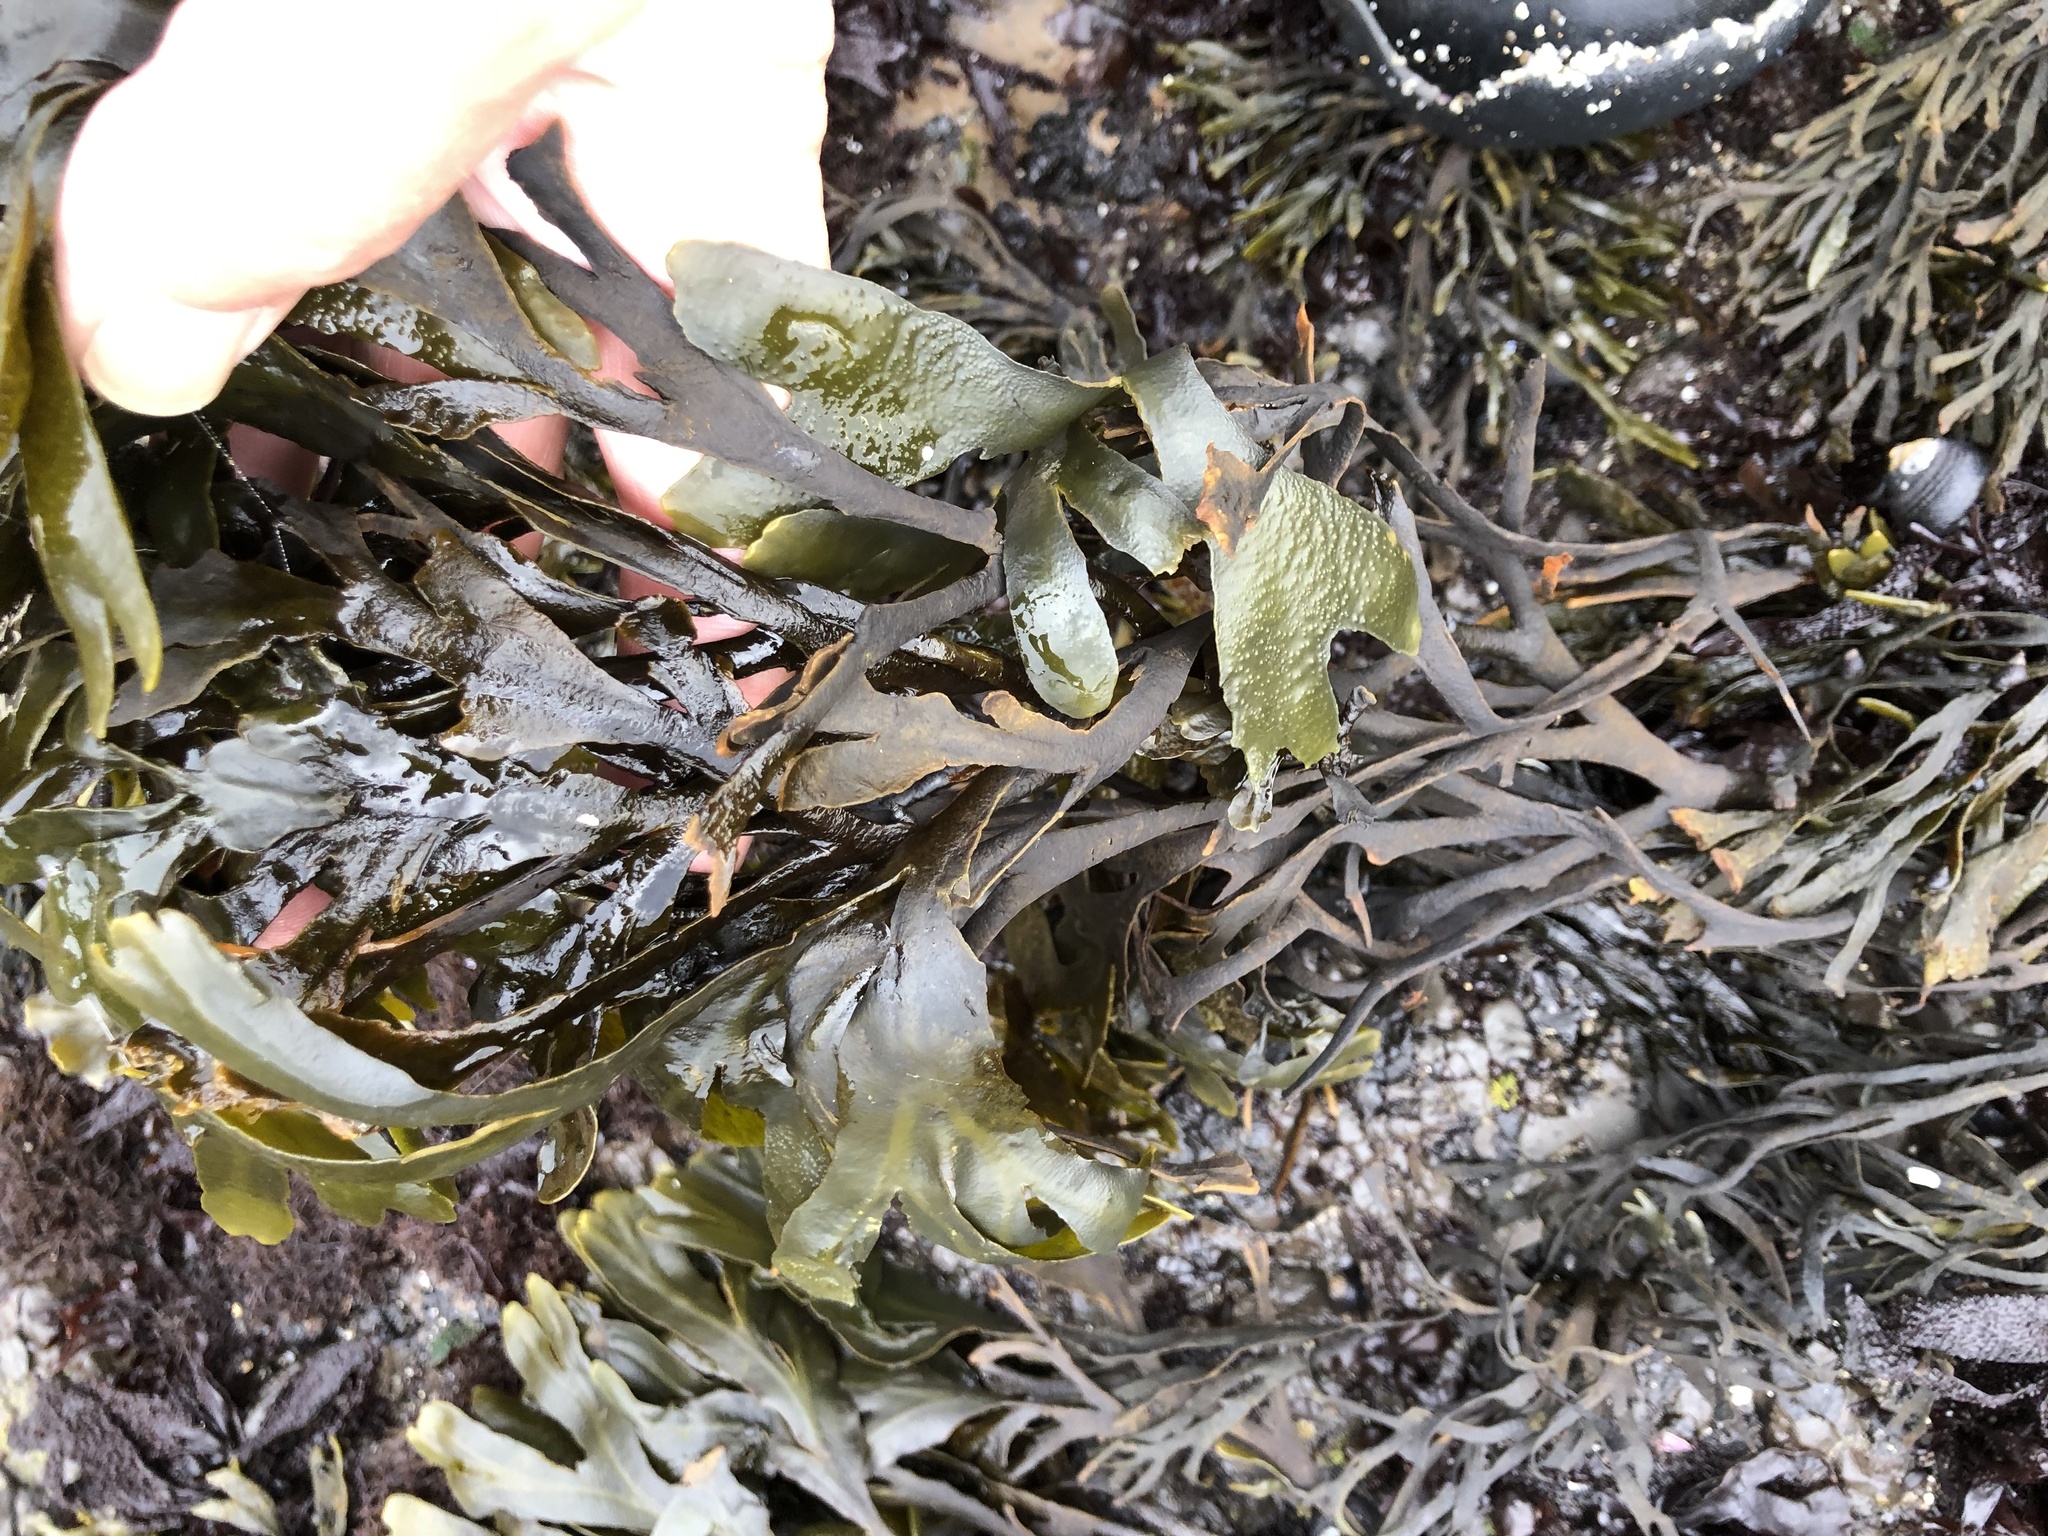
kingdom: Chromista
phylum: Ochrophyta
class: Phaeophyceae
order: Fucales
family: Fucaceae
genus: Fucus
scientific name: Fucus distichus
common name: Rockweed
